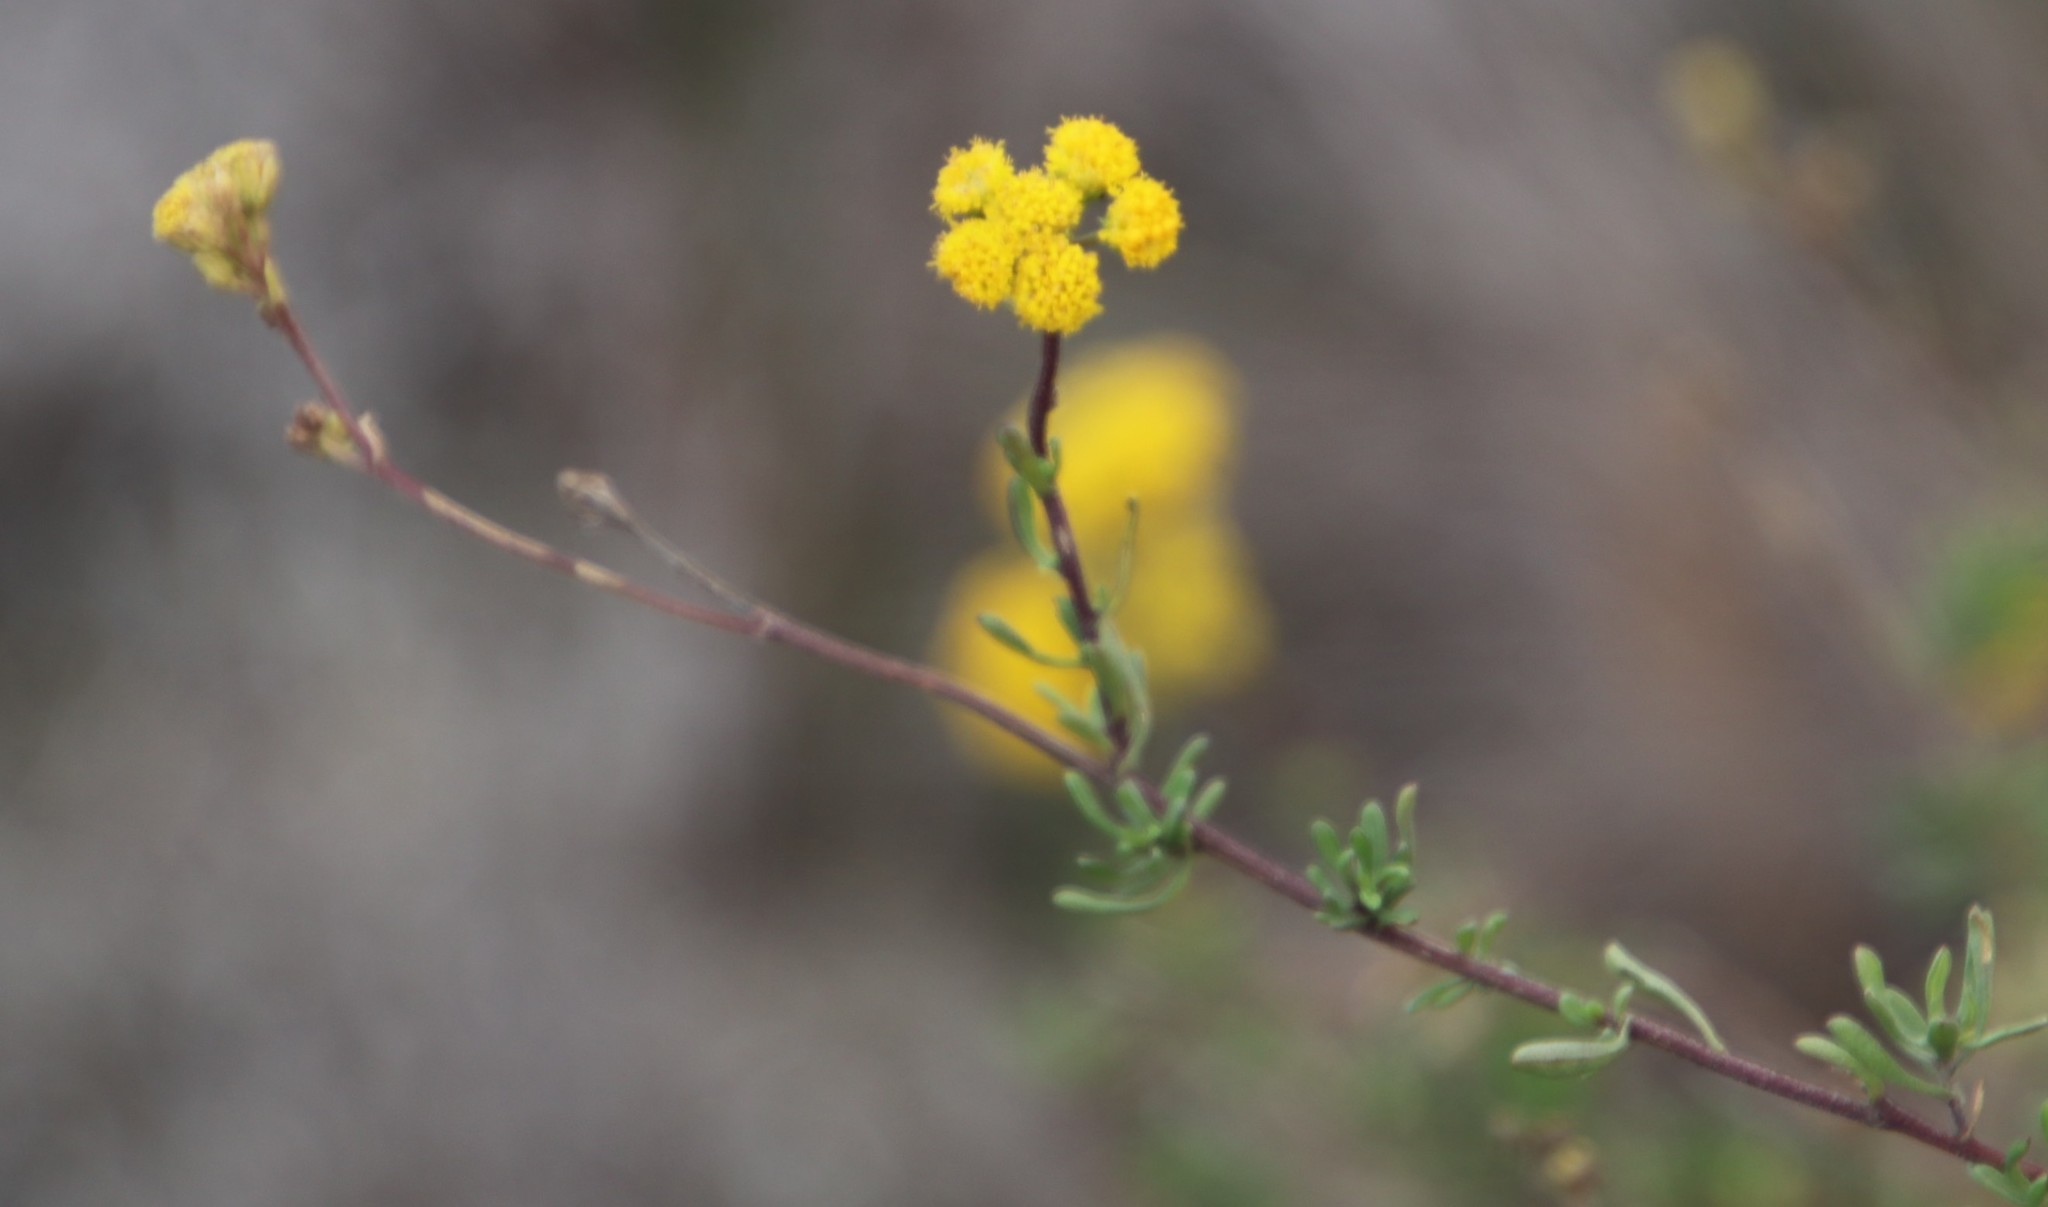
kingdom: Plantae
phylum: Tracheophyta
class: Magnoliopsida
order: Asterales
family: Asteraceae
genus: Nidorella
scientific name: Nidorella foetida
